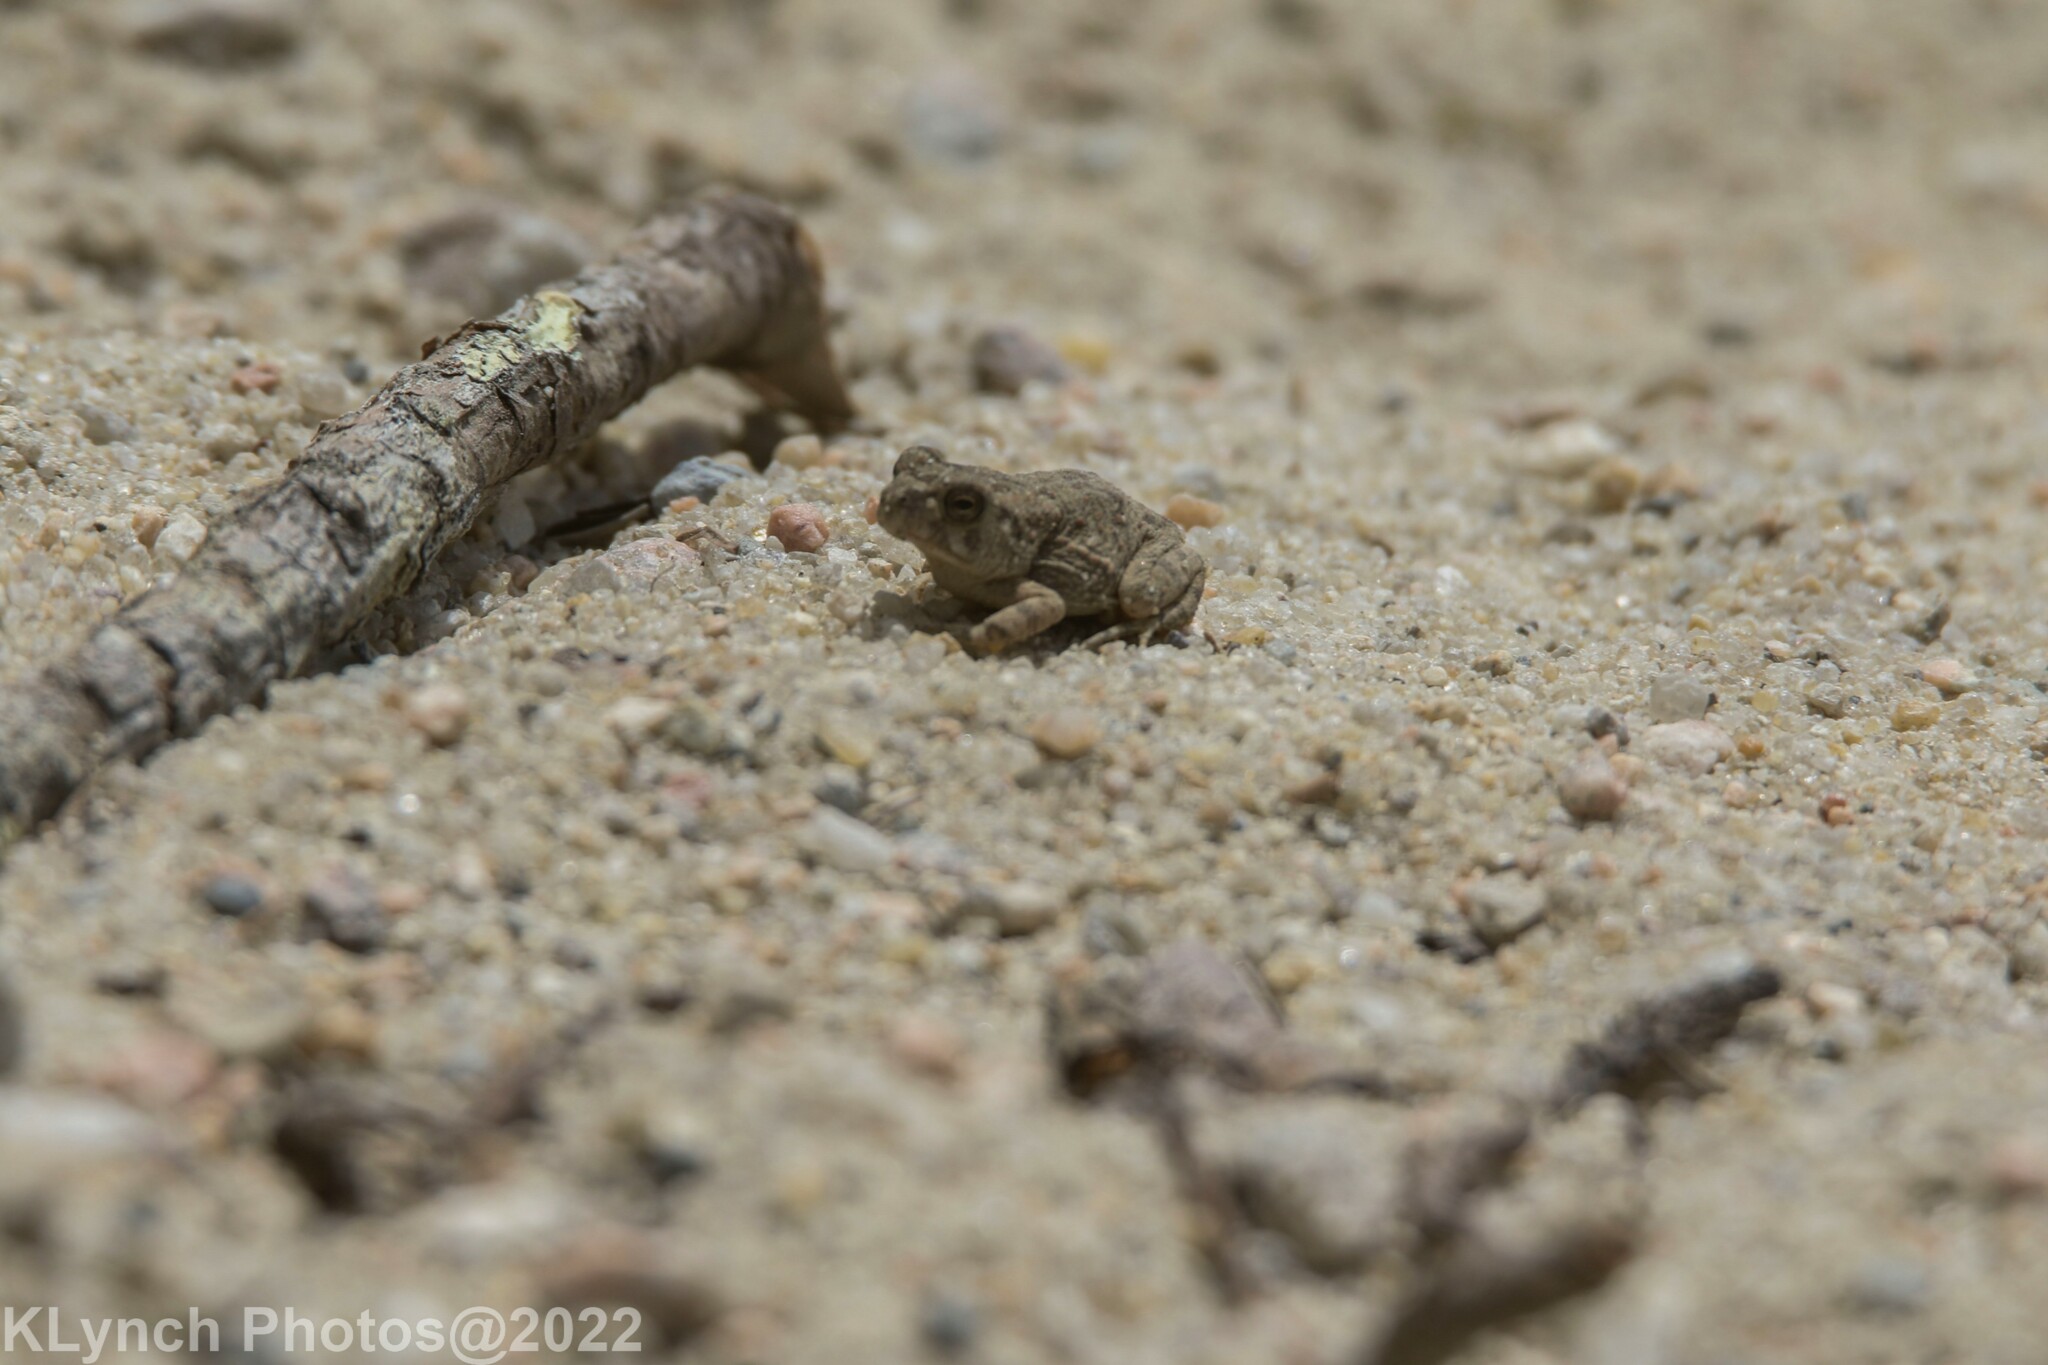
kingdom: Animalia
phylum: Chordata
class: Amphibia
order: Anura
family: Bufonidae
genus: Anaxyrus
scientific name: Anaxyrus fowleri
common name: Fowler's toad
